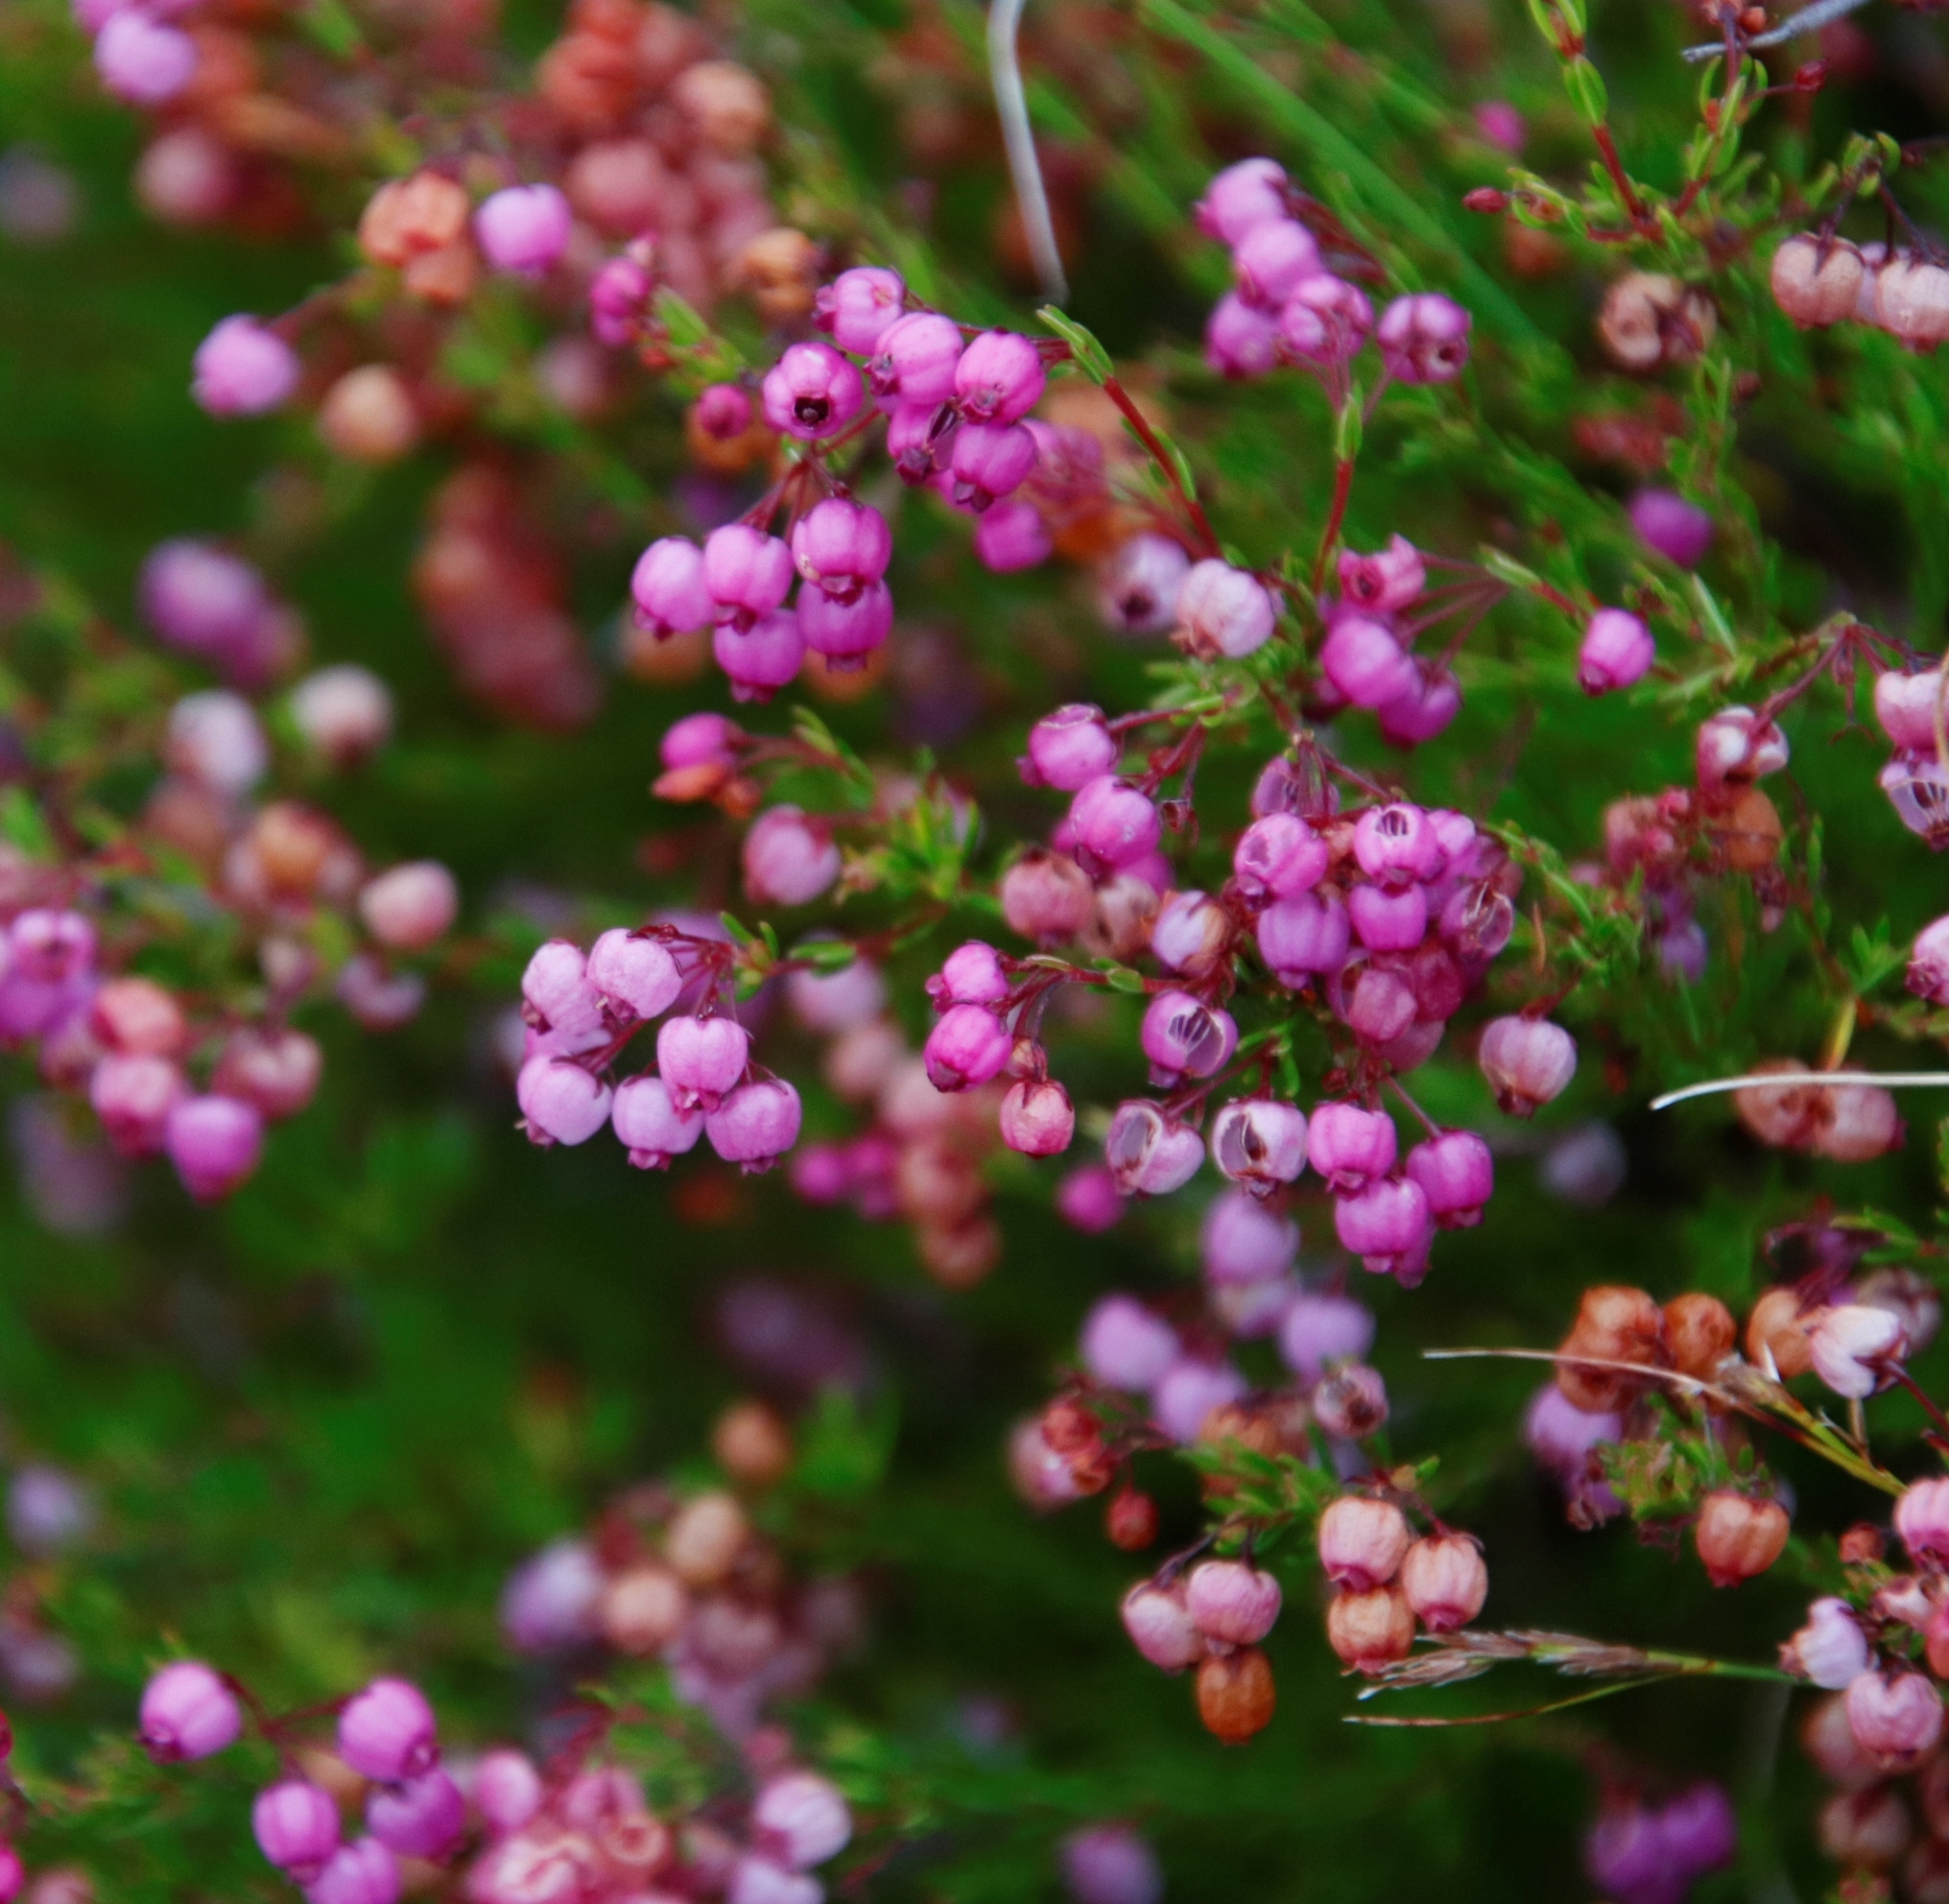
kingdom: Plantae
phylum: Tracheophyta
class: Magnoliopsida
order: Ericales
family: Ericaceae
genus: Erica
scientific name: Erica multumbellifera
